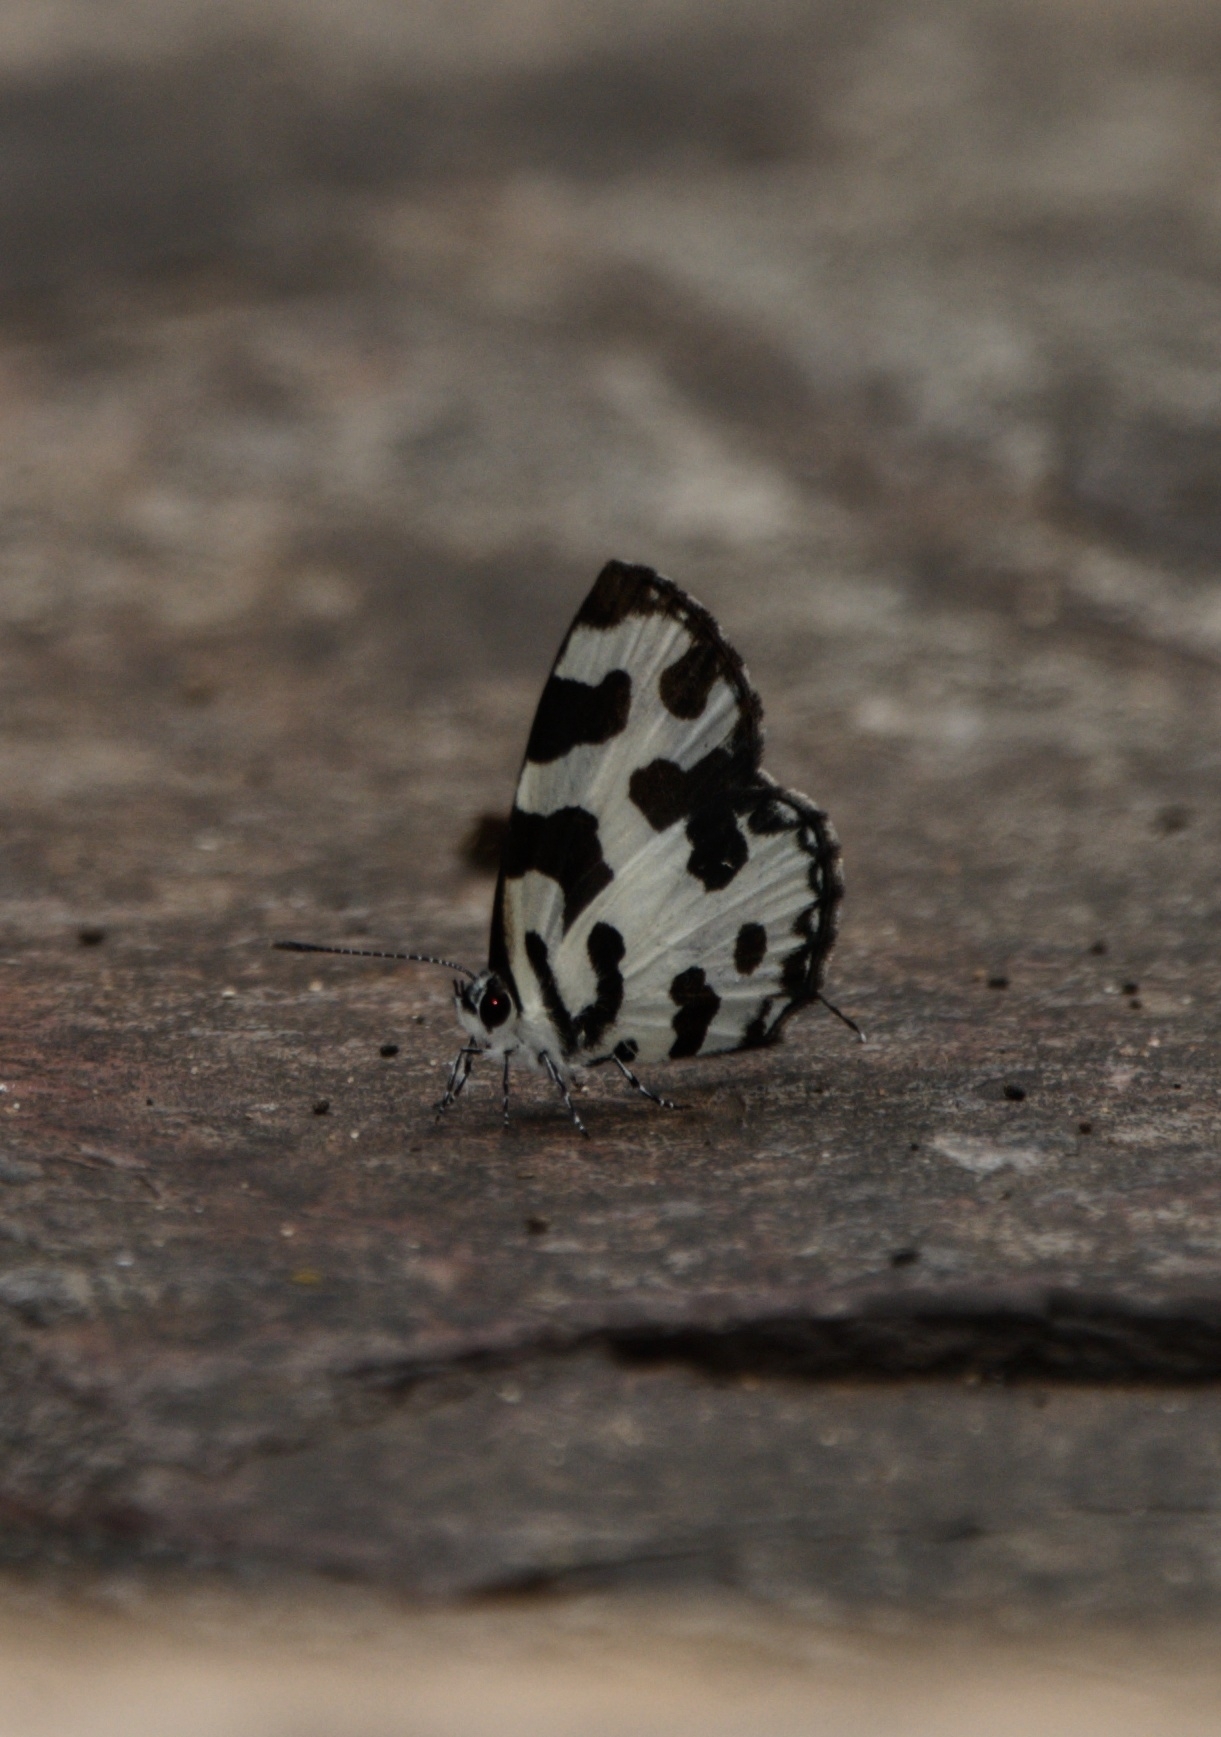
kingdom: Animalia
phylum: Arthropoda
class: Insecta
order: Lepidoptera
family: Lycaenidae
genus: Caleta
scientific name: Caleta decidia
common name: Angled pierrot
